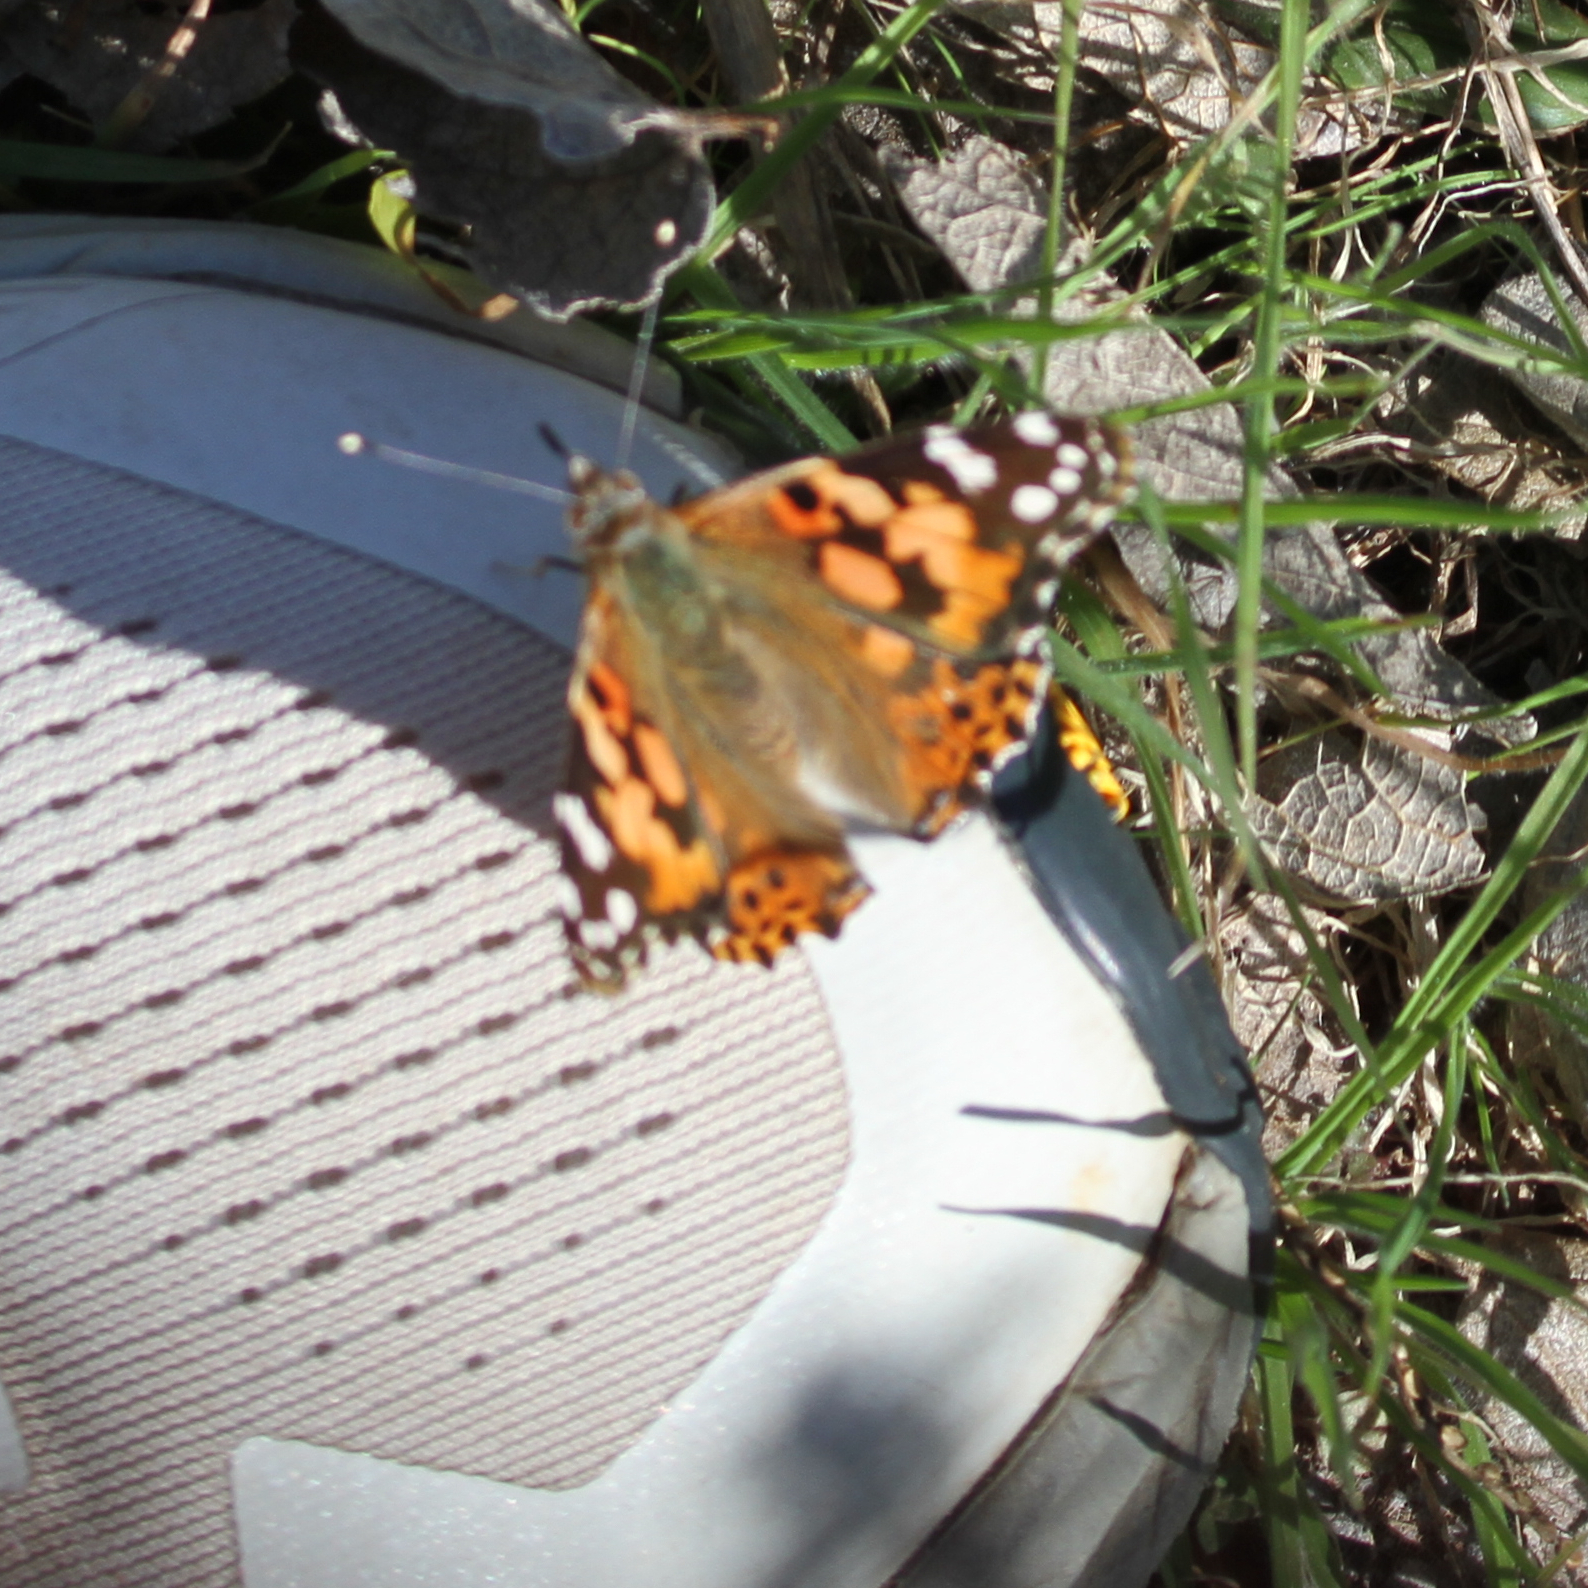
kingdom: Animalia
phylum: Arthropoda
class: Insecta
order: Lepidoptera
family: Nymphalidae
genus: Vanessa
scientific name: Vanessa cardui
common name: Painted lady
